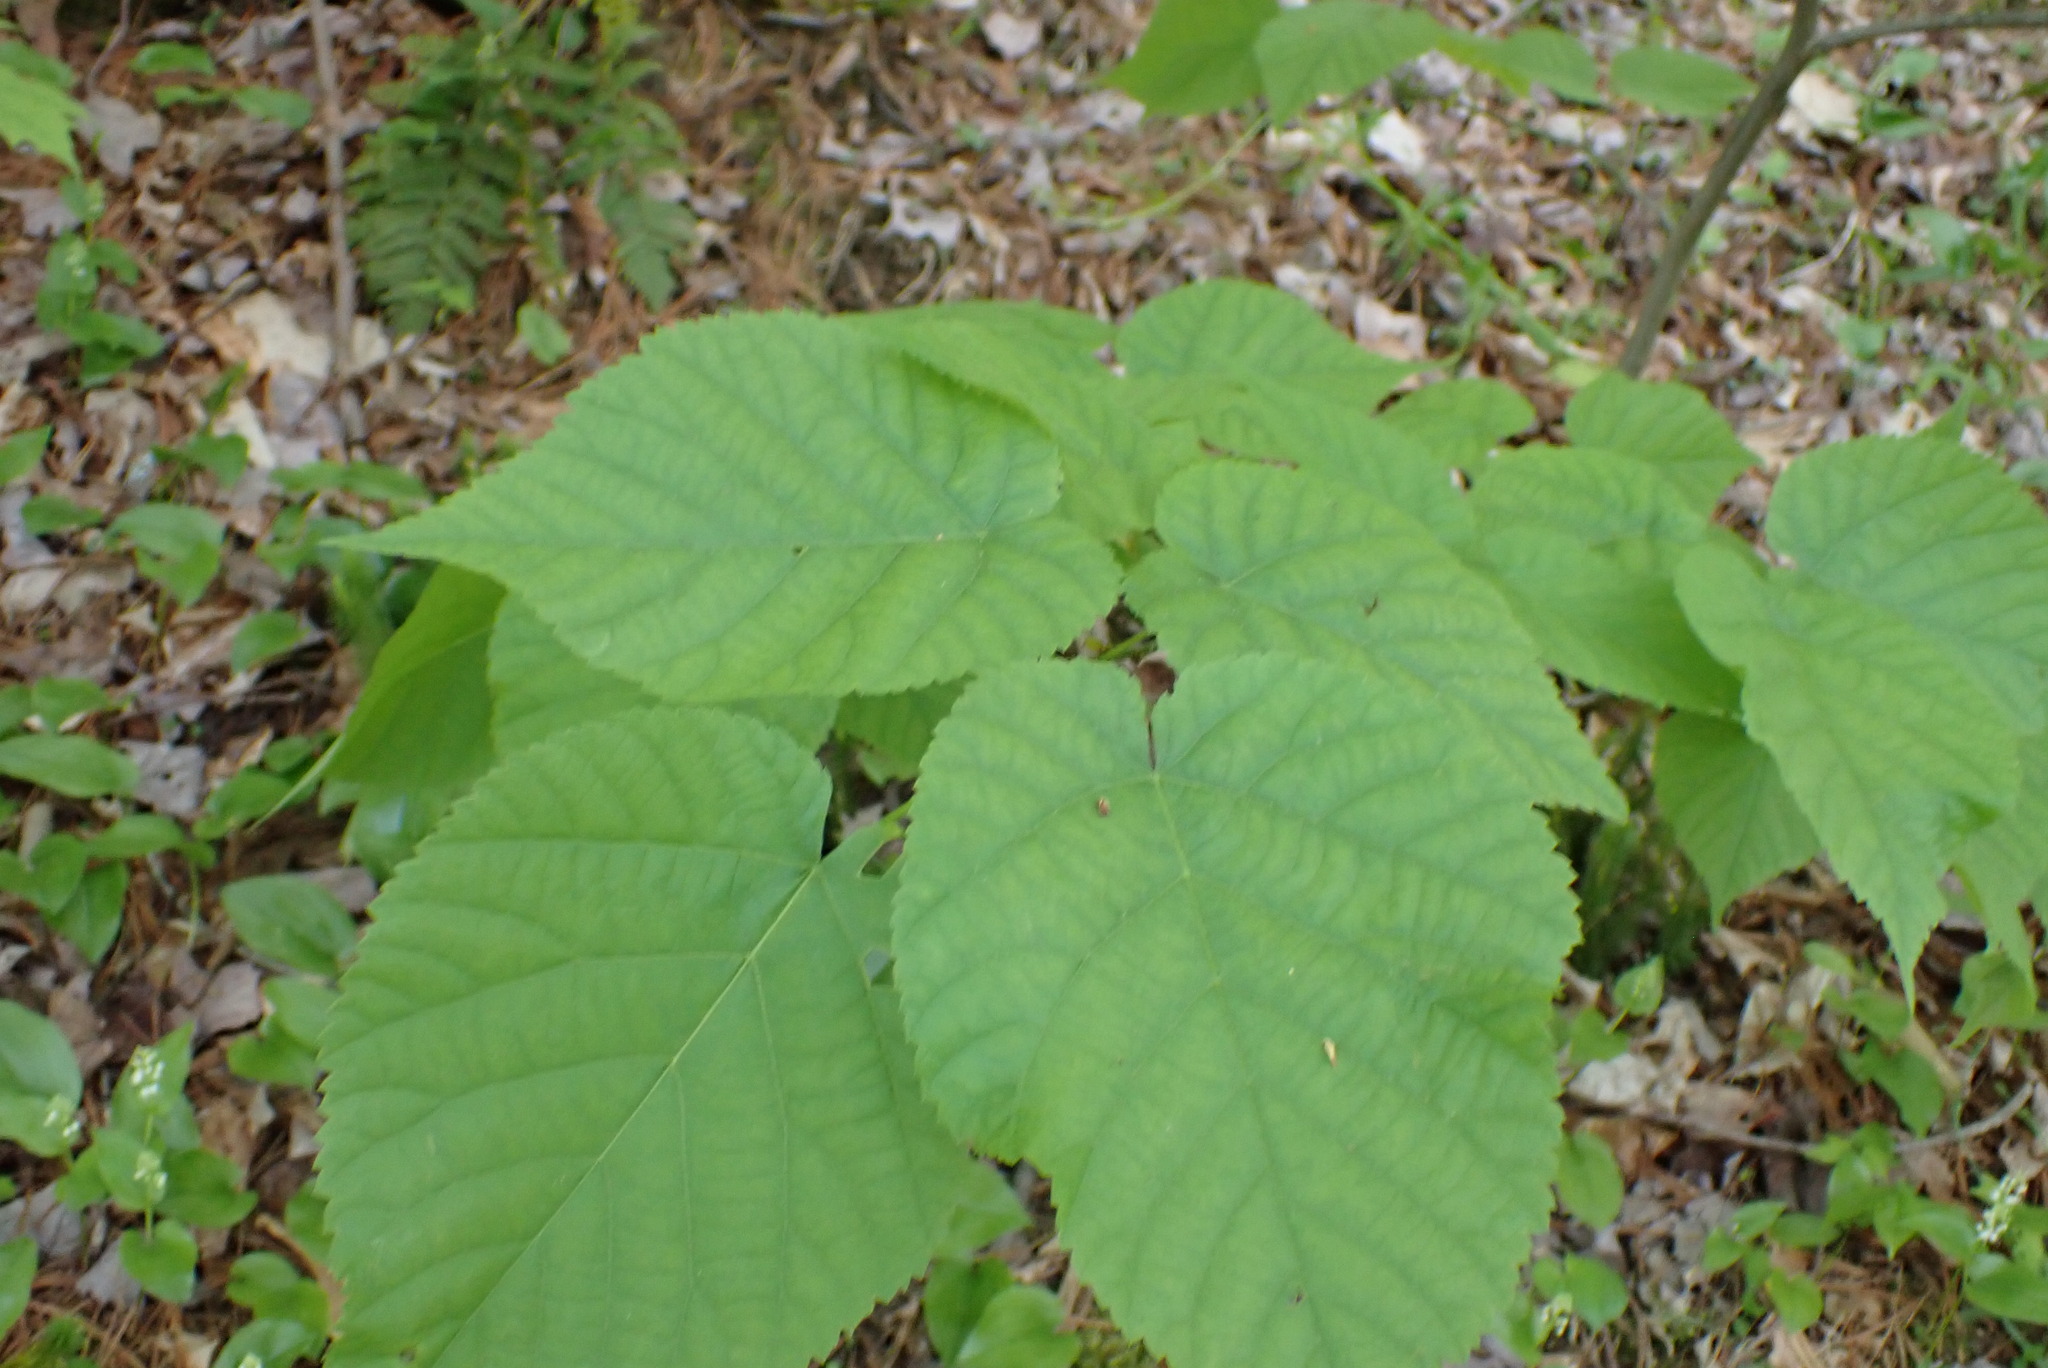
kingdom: Plantae
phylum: Tracheophyta
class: Magnoliopsida
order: Malvales
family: Malvaceae
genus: Tilia
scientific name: Tilia americana
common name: Basswood
